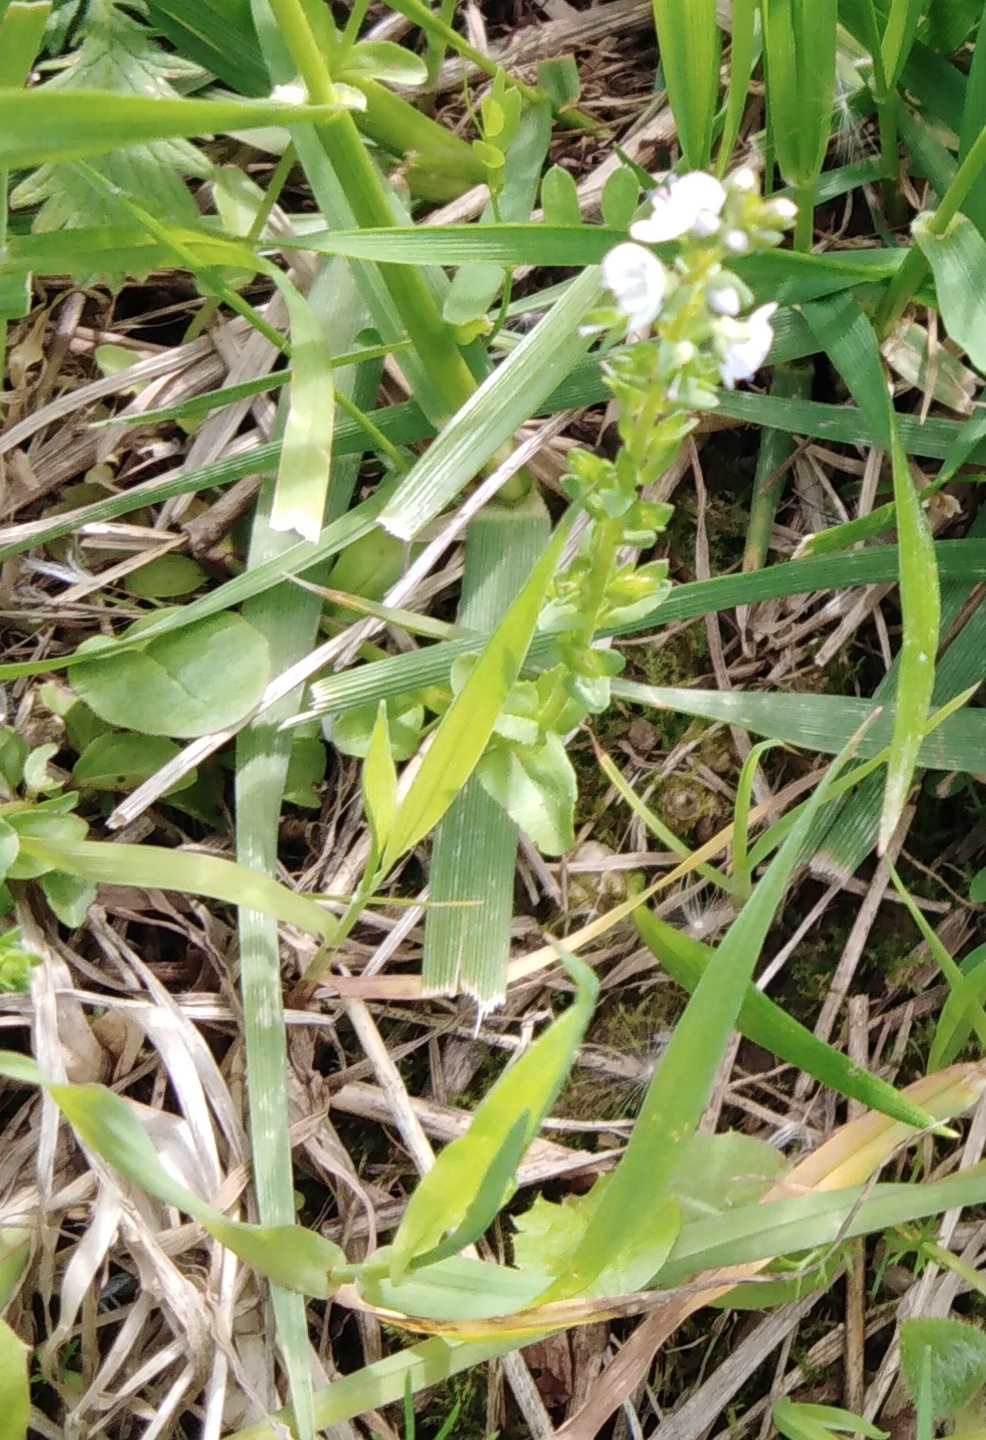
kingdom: Plantae
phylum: Tracheophyta
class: Magnoliopsida
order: Lamiales
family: Plantaginaceae
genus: Veronica
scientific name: Veronica serpyllifolia
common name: Thyme-leaved speedwell
